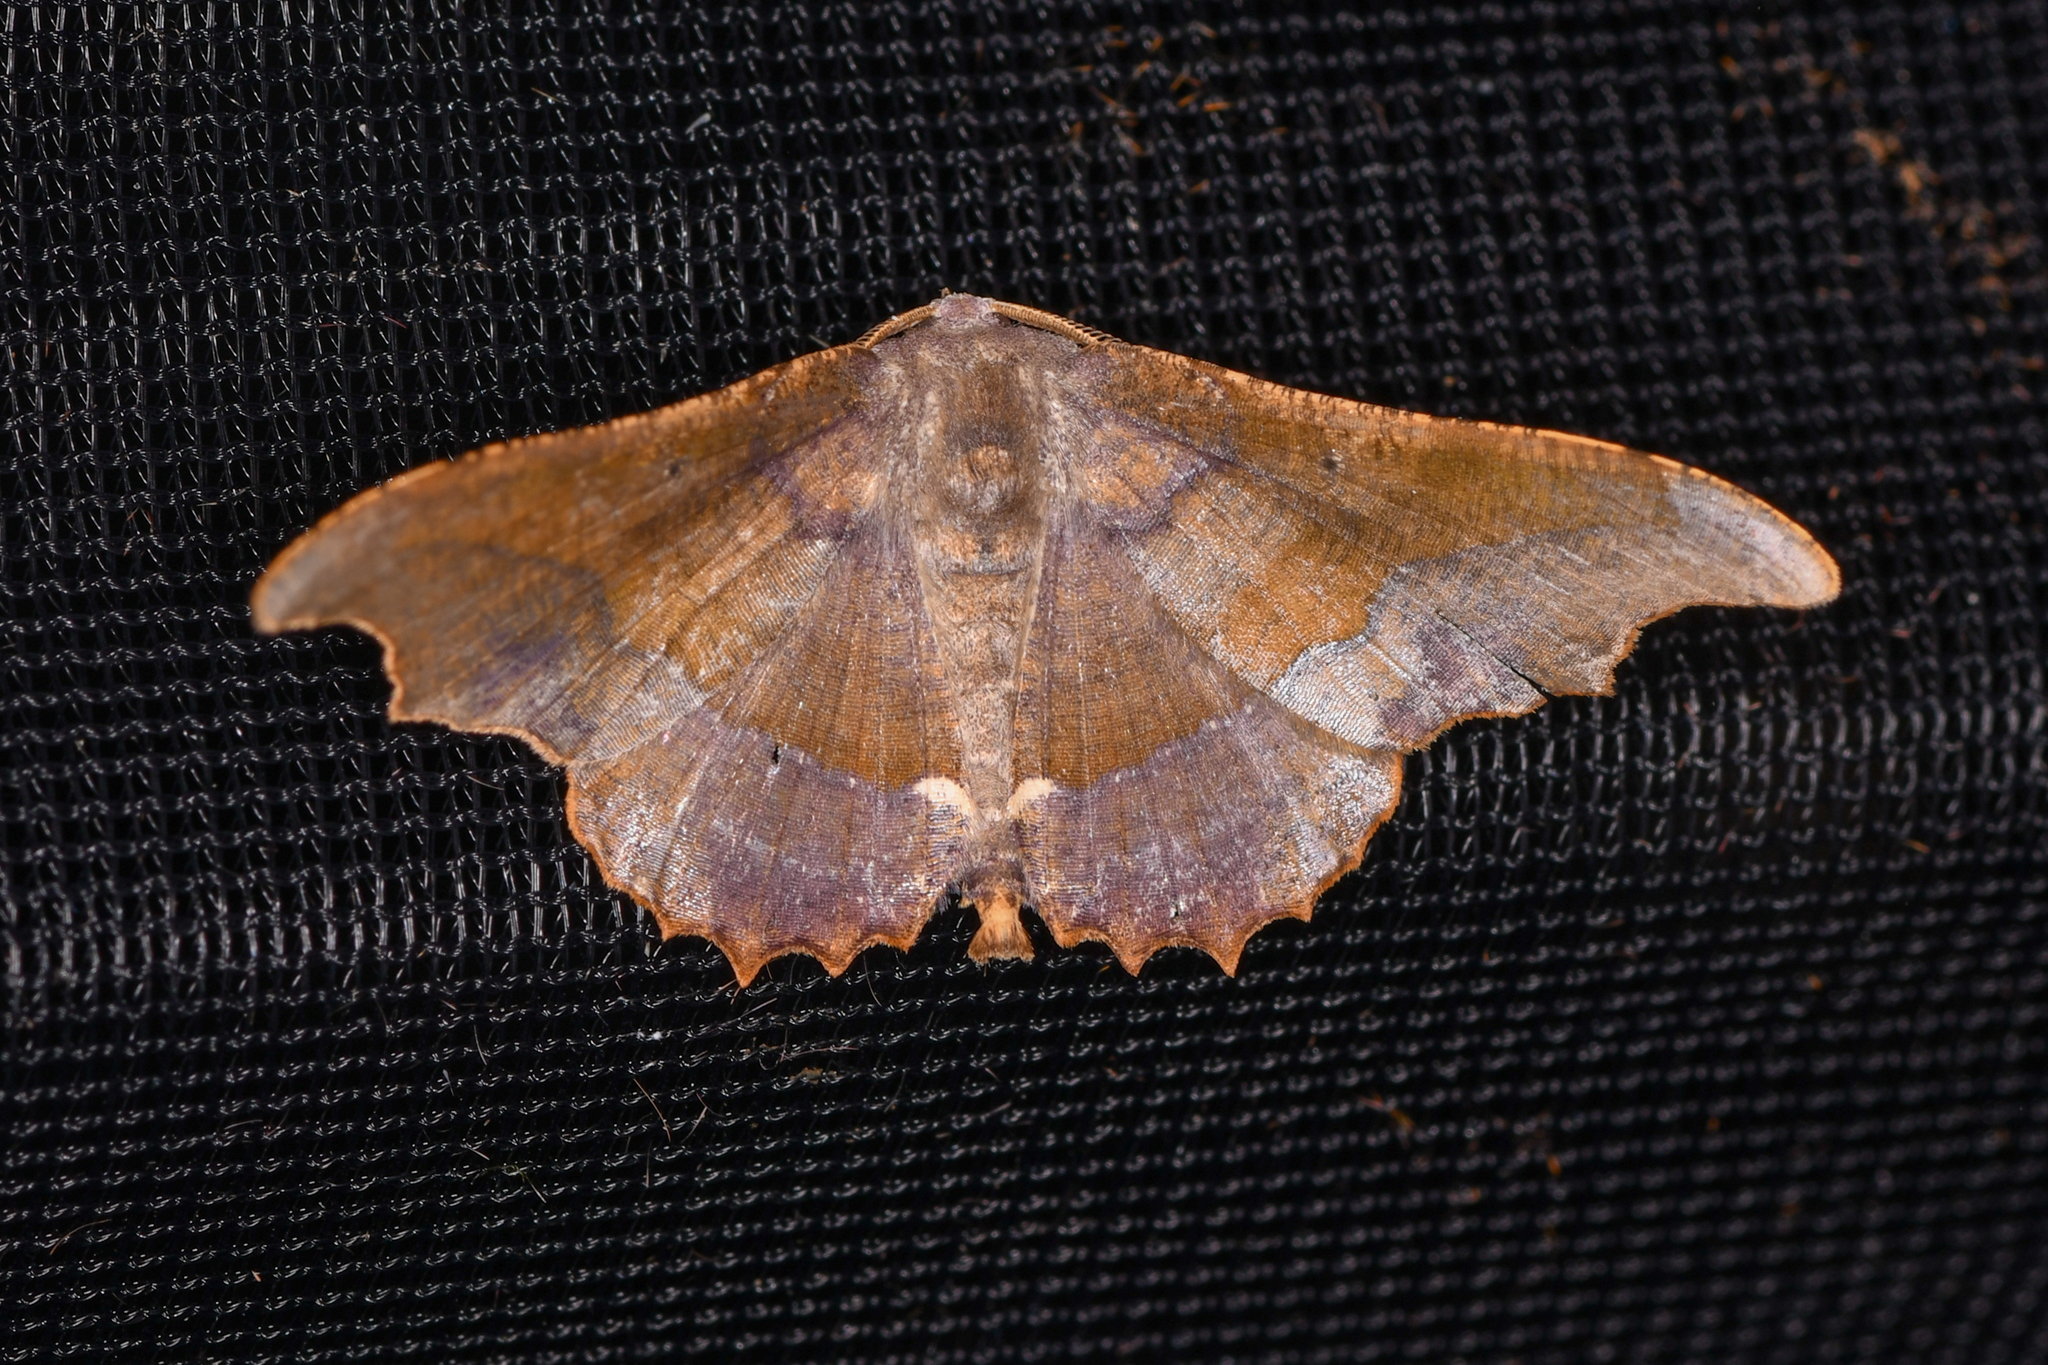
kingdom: Animalia
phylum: Arthropoda
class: Insecta
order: Lepidoptera
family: Geometridae
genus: Patalene
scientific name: Patalene aenetusaria
